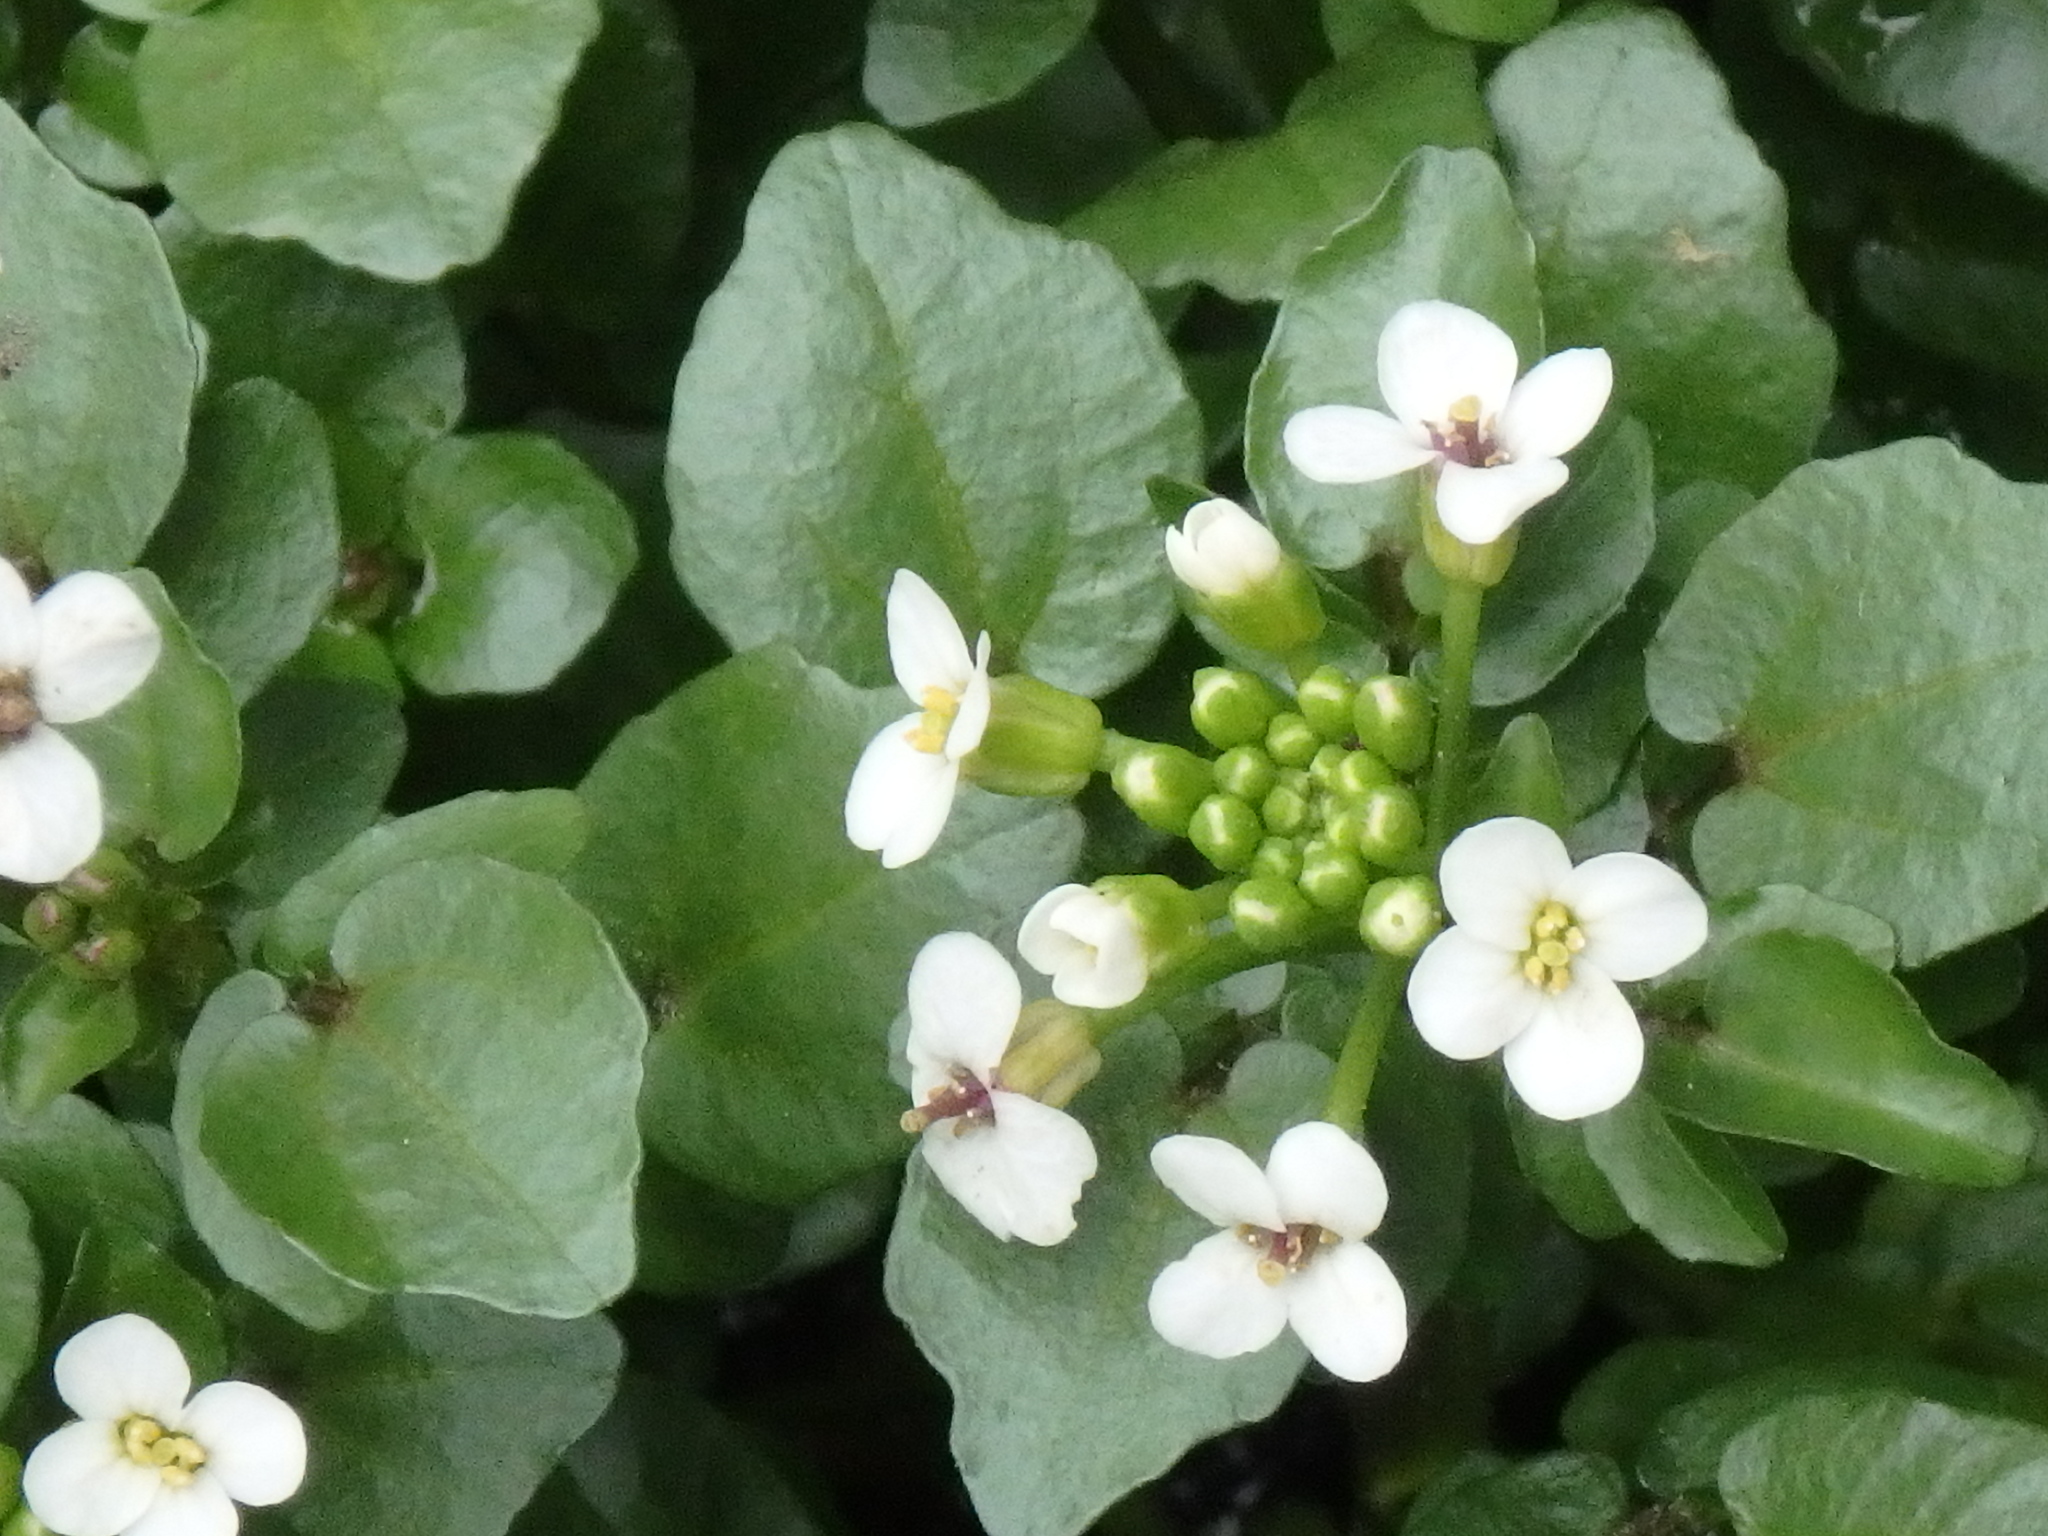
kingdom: Plantae
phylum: Tracheophyta
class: Magnoliopsida
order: Brassicales
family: Brassicaceae
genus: Nasturtium
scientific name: Nasturtium officinale
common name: Watercress
